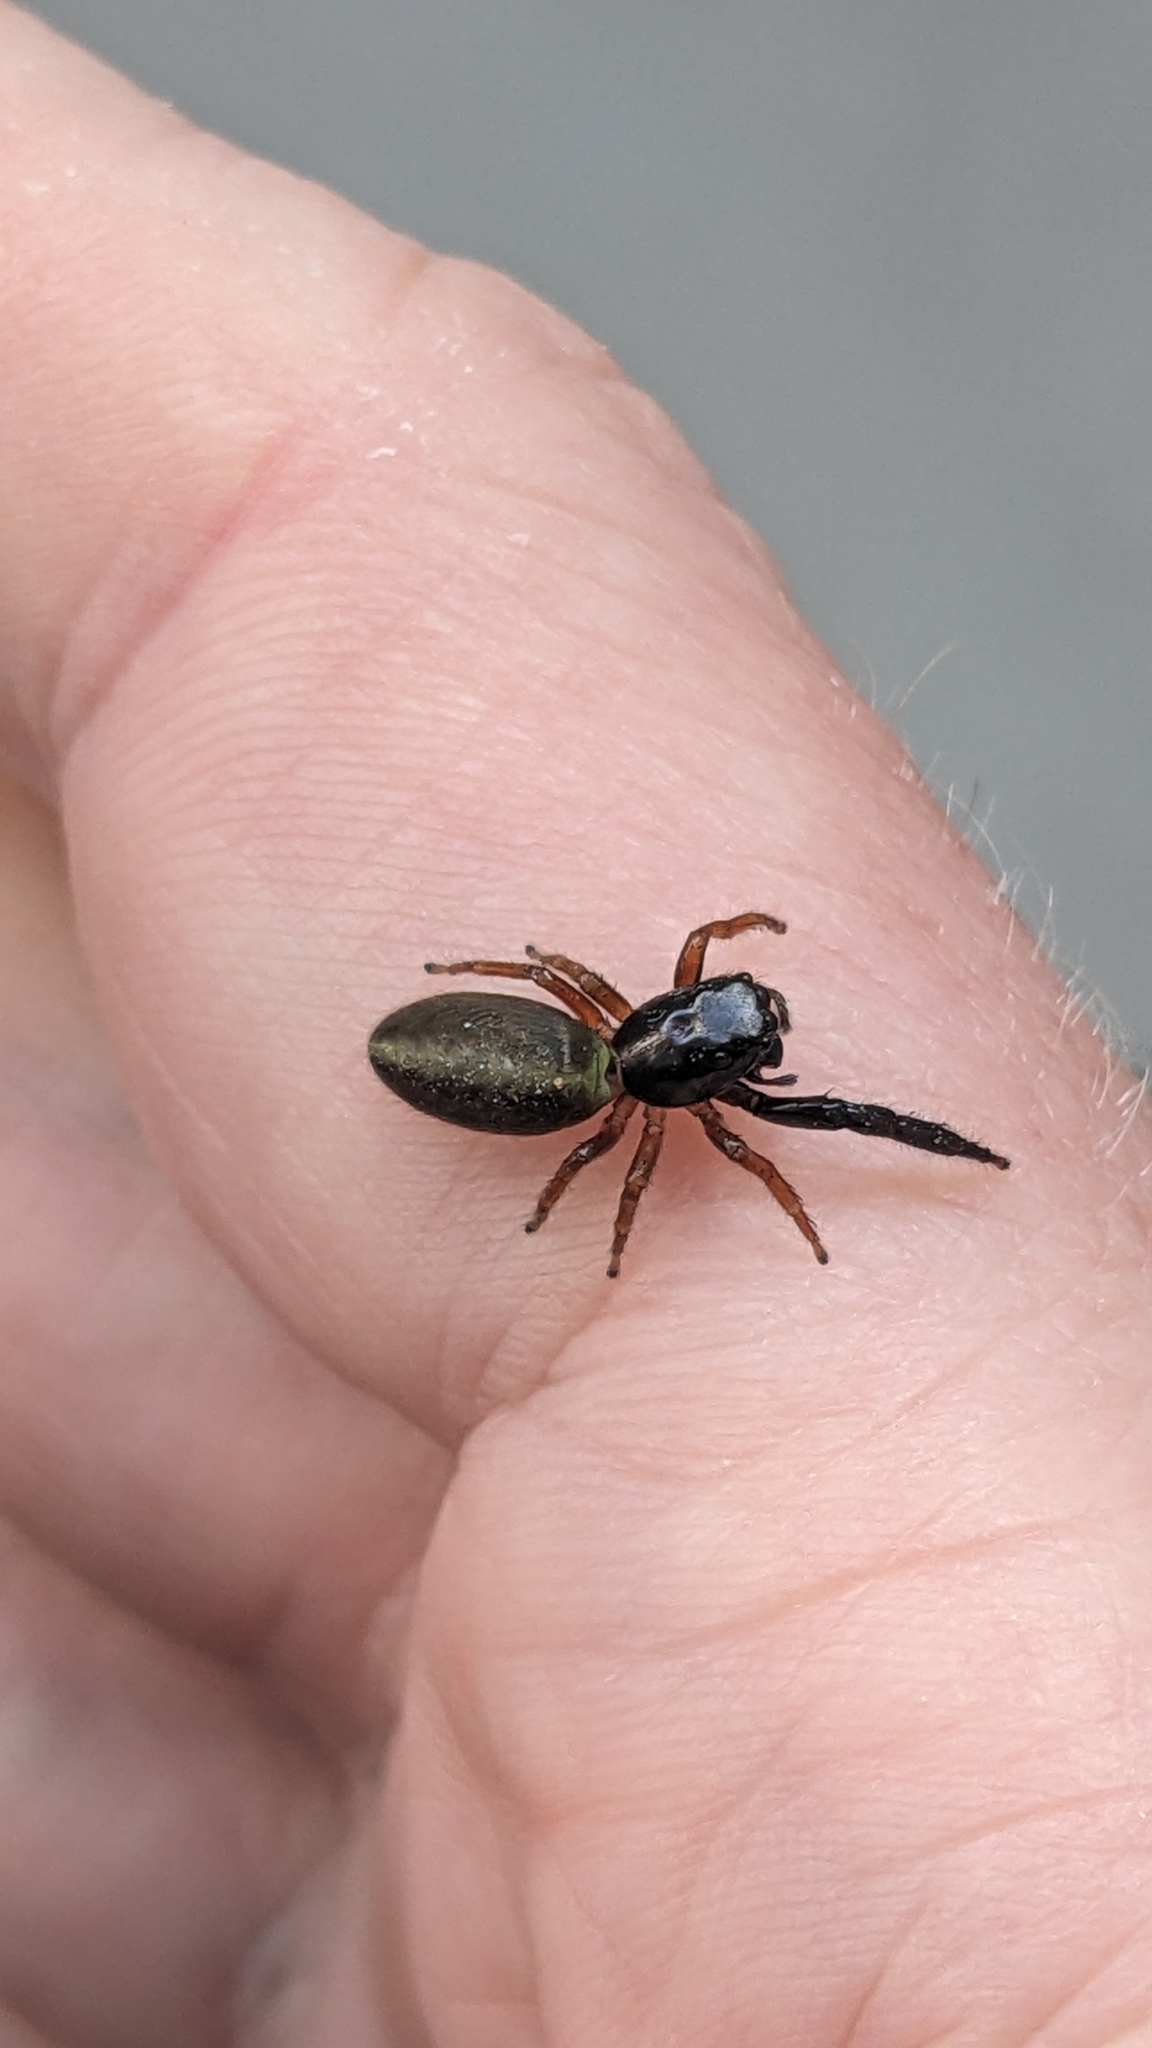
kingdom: Animalia
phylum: Arthropoda
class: Arachnida
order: Araneae
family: Salticidae
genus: Trite
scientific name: Trite planiceps
